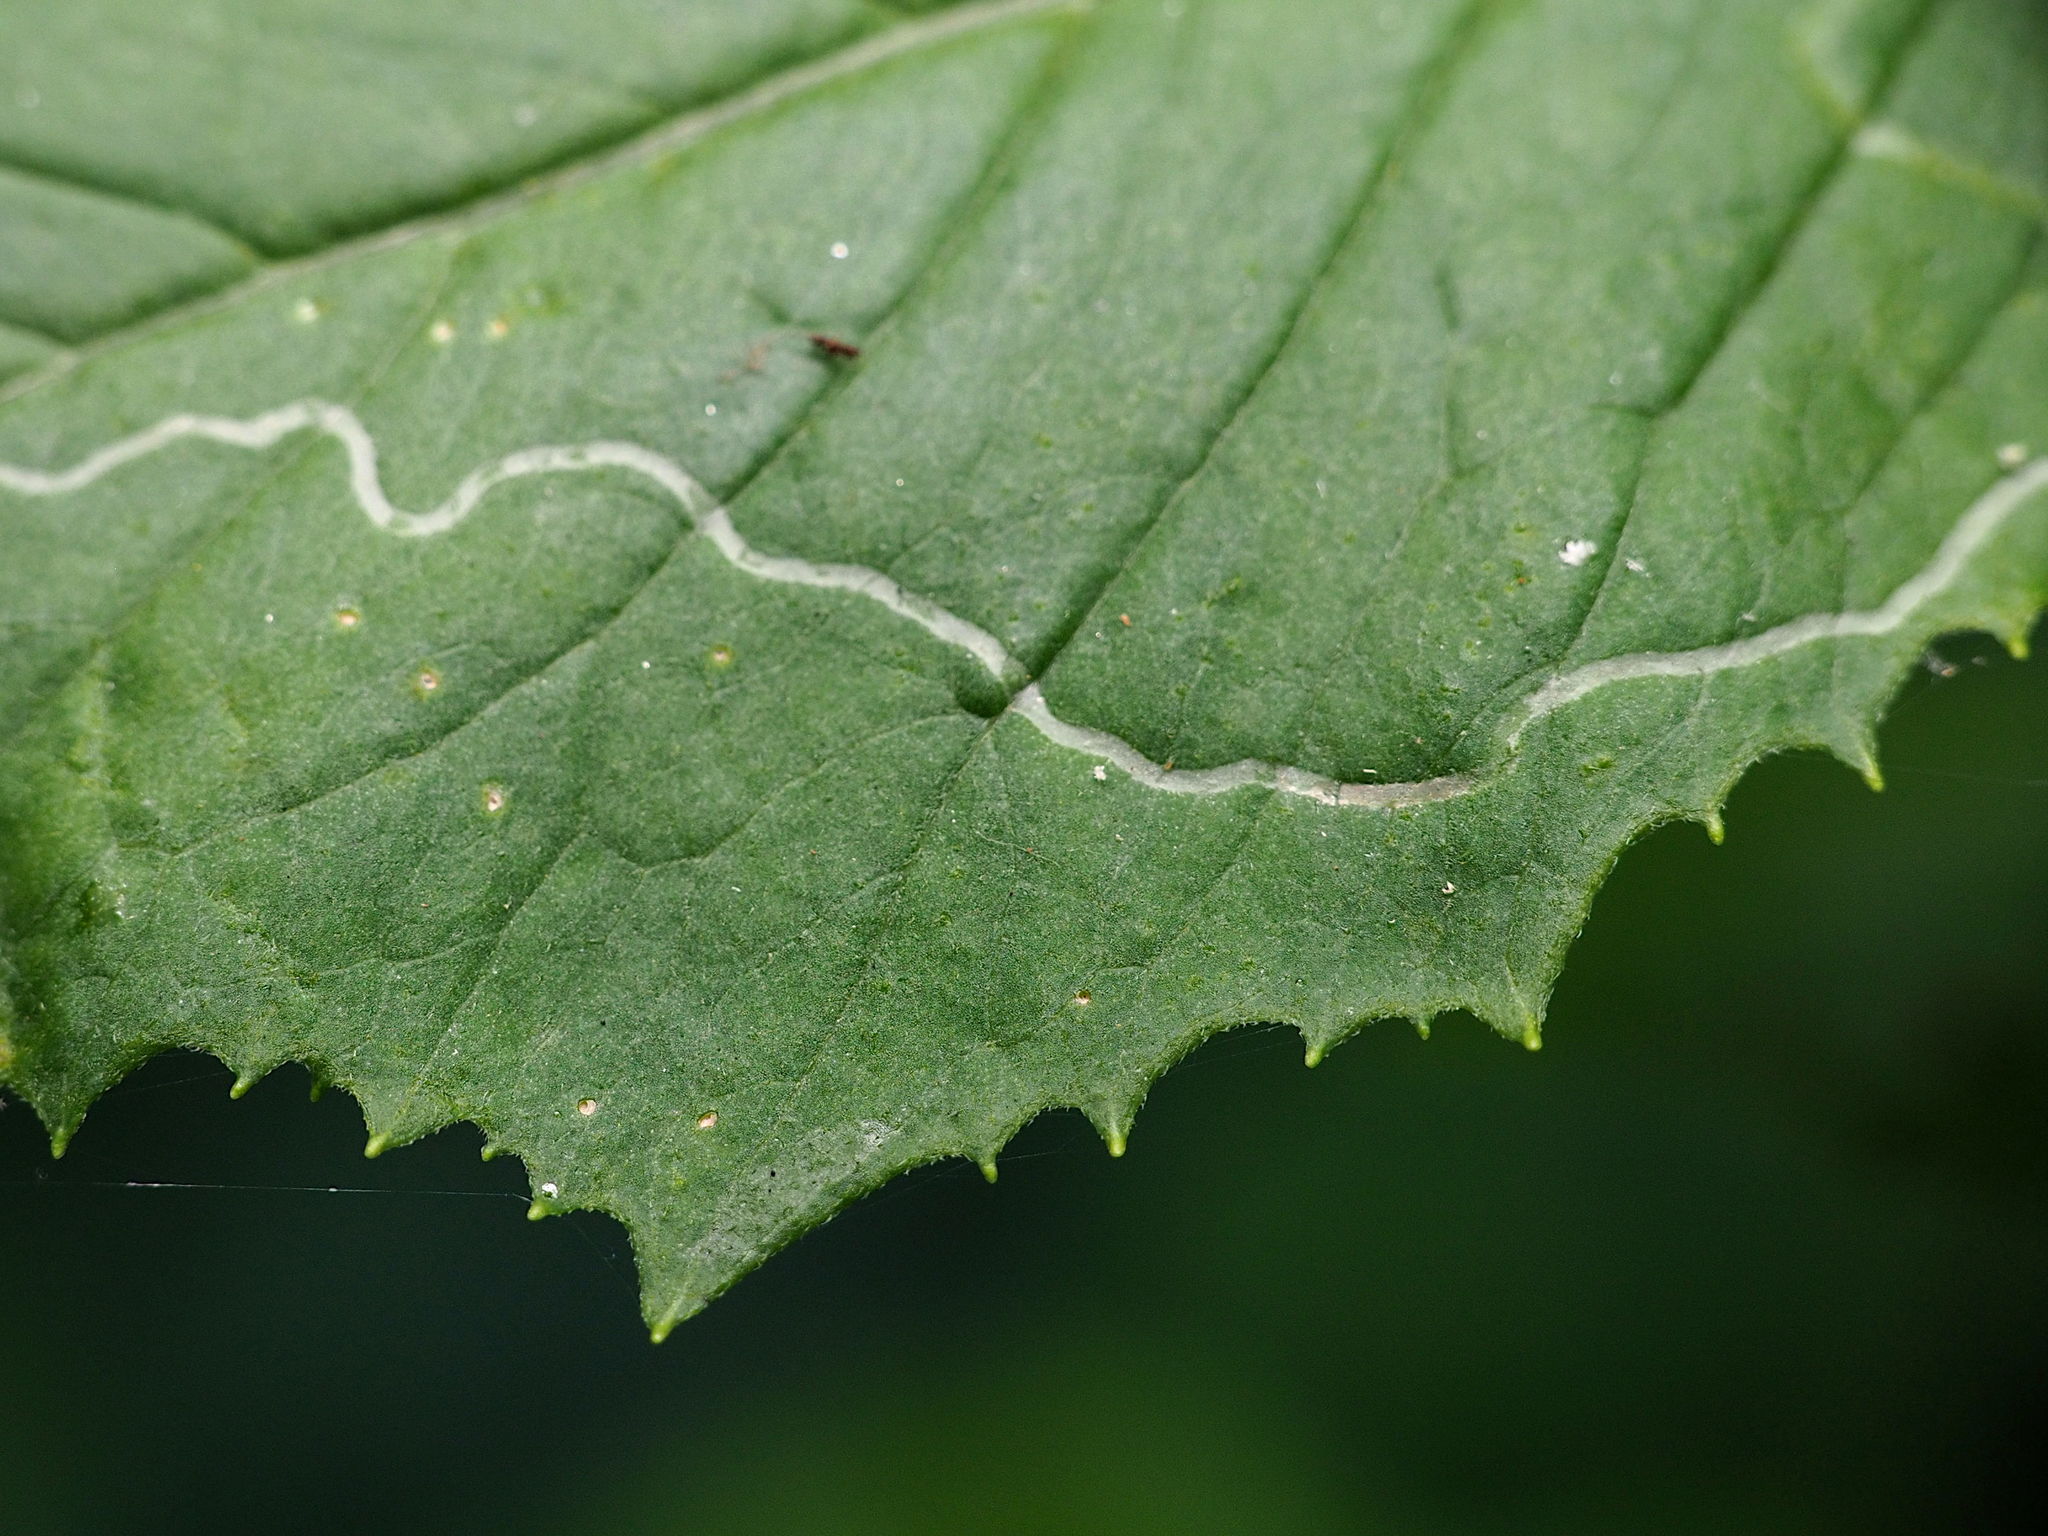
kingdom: Animalia
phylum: Arthropoda
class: Insecta
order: Lepidoptera
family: Gracillariidae
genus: Phyllocnistis
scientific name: Phyllocnistis insignis
